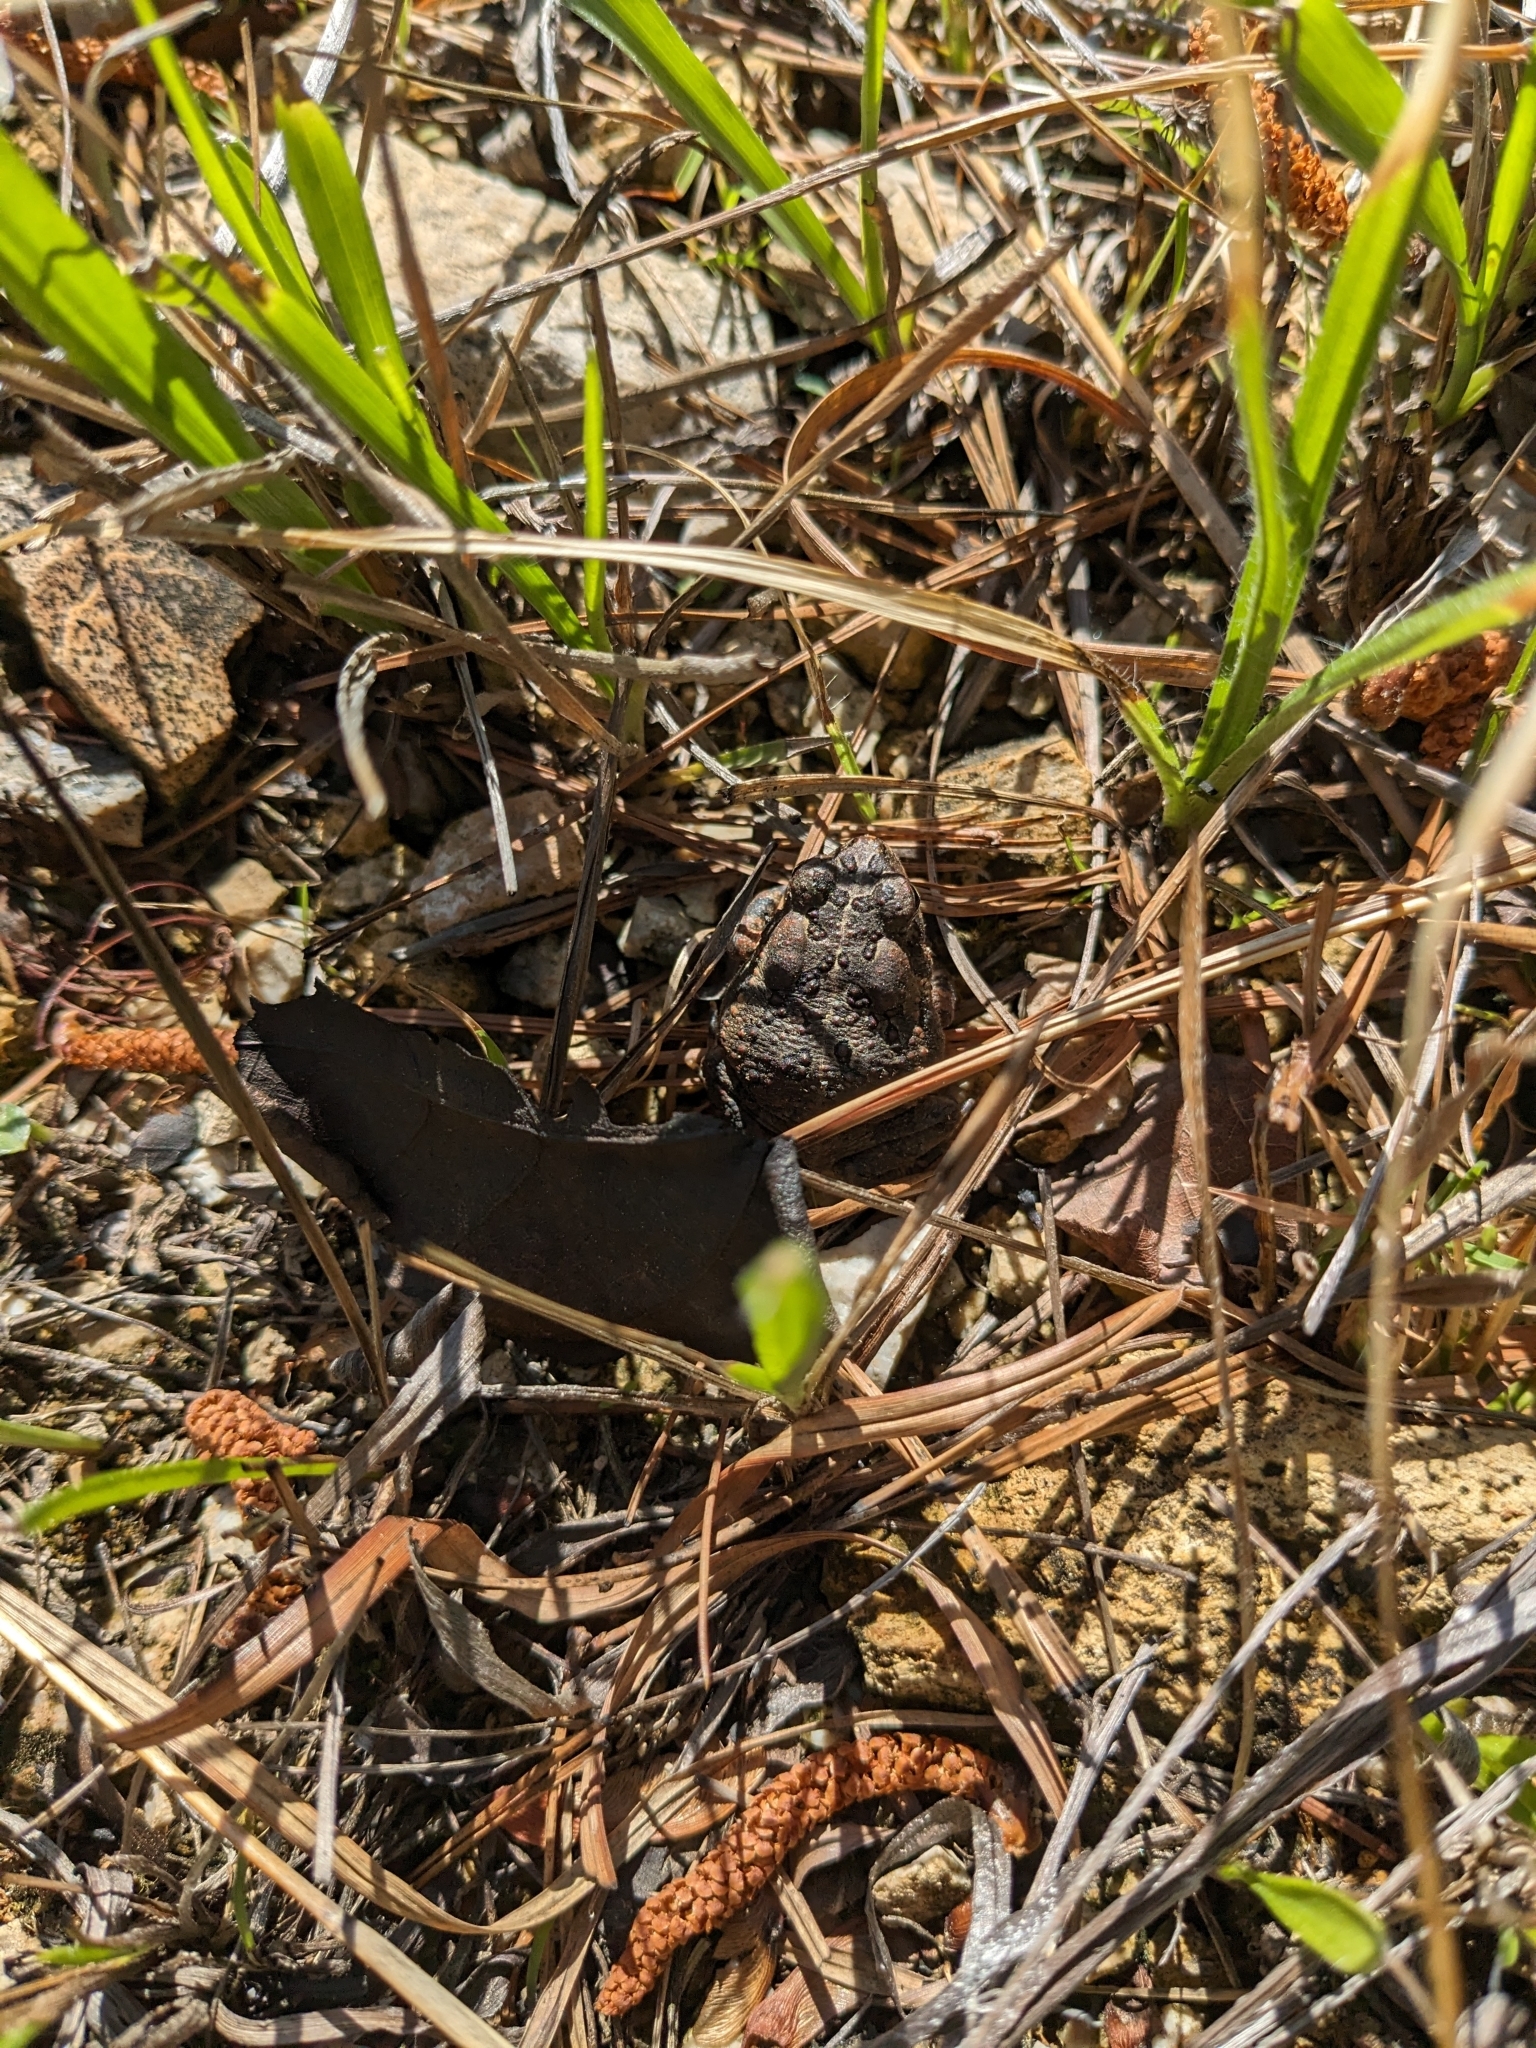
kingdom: Animalia
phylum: Chordata
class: Amphibia
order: Anura
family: Bufonidae
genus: Anaxyrus
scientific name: Anaxyrus fowleri
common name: Fowler's toad
